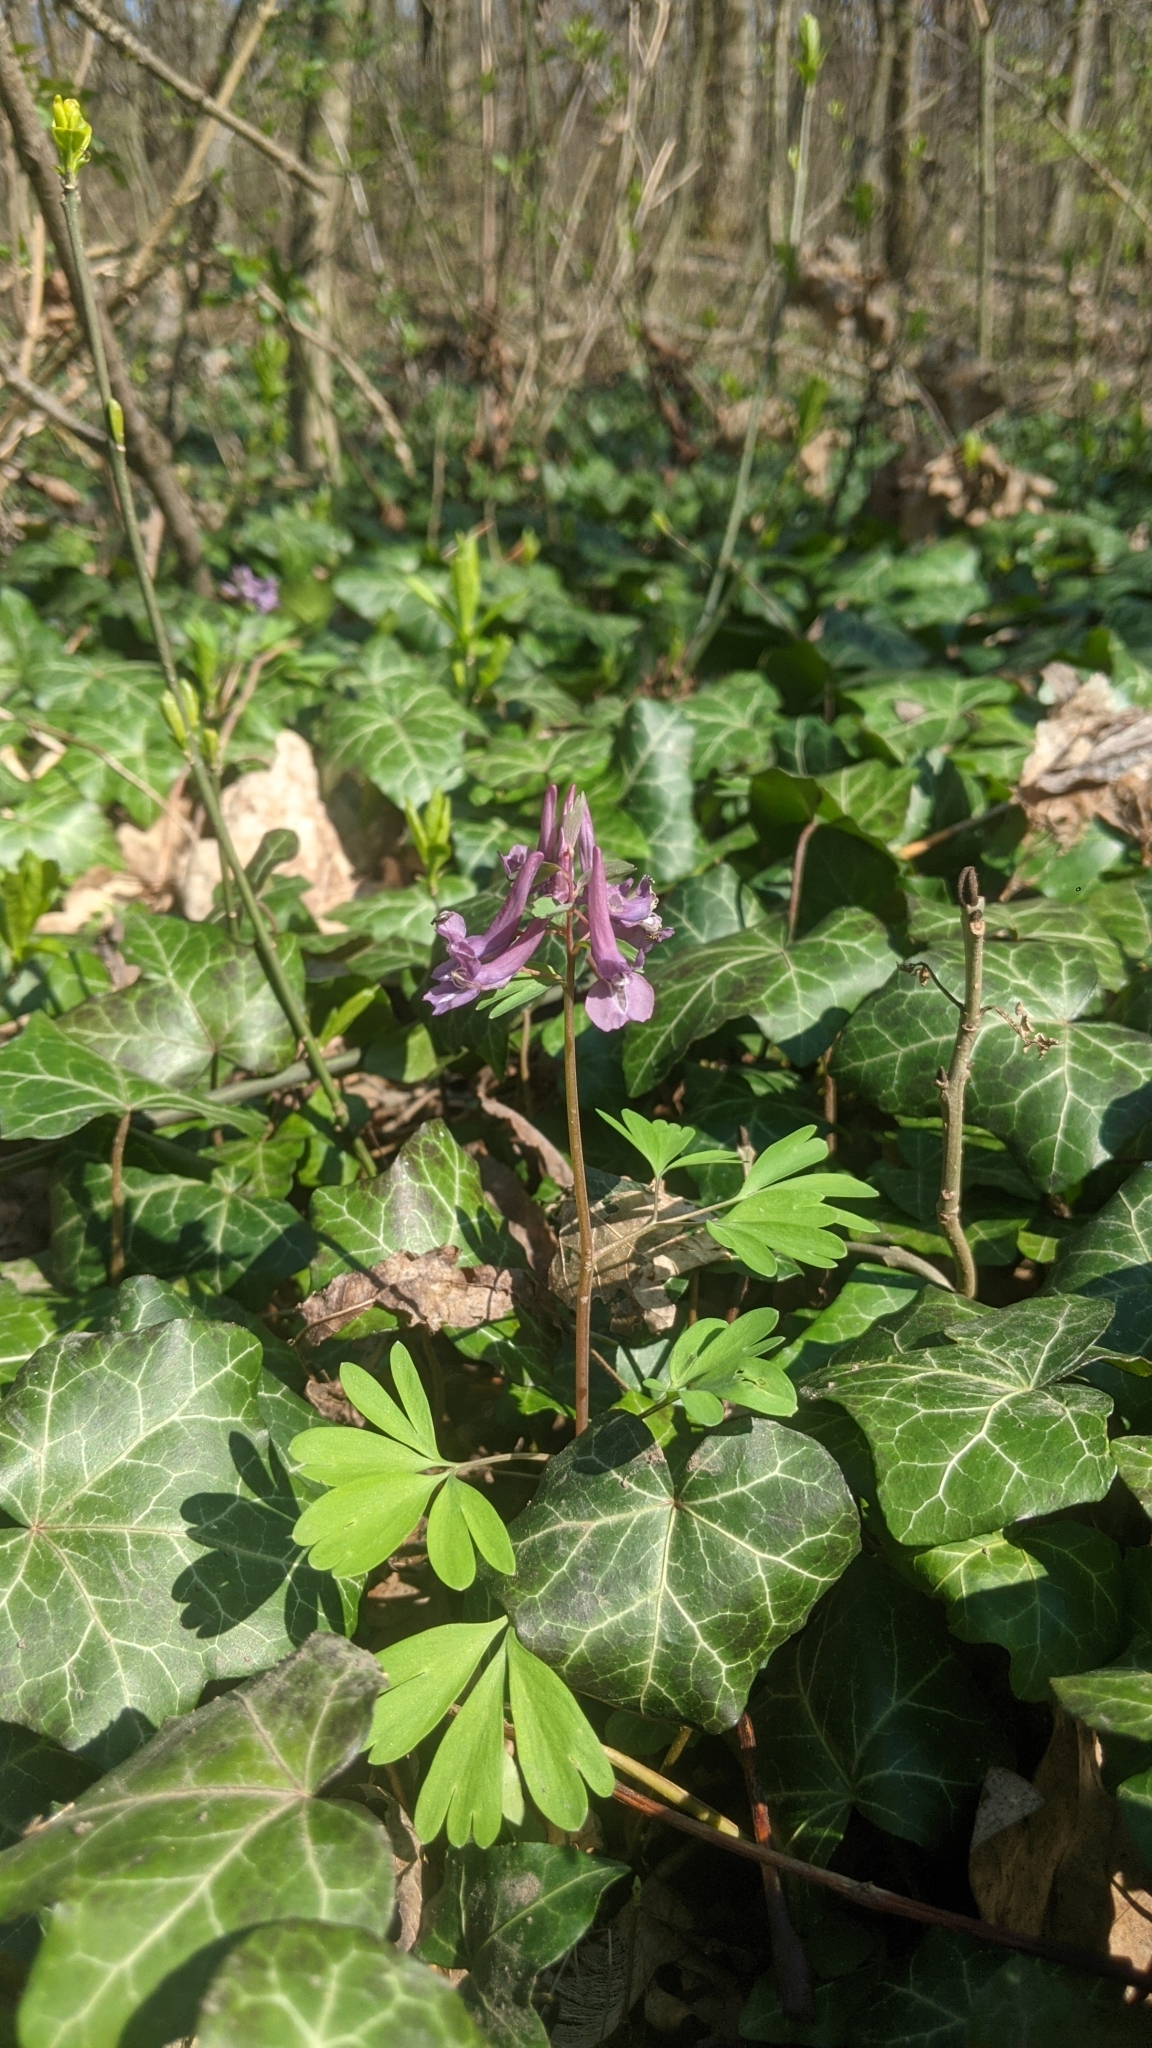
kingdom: Plantae
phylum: Tracheophyta
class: Magnoliopsida
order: Ranunculales
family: Papaveraceae
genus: Corydalis
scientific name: Corydalis solida
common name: Bird-in-a-bush
